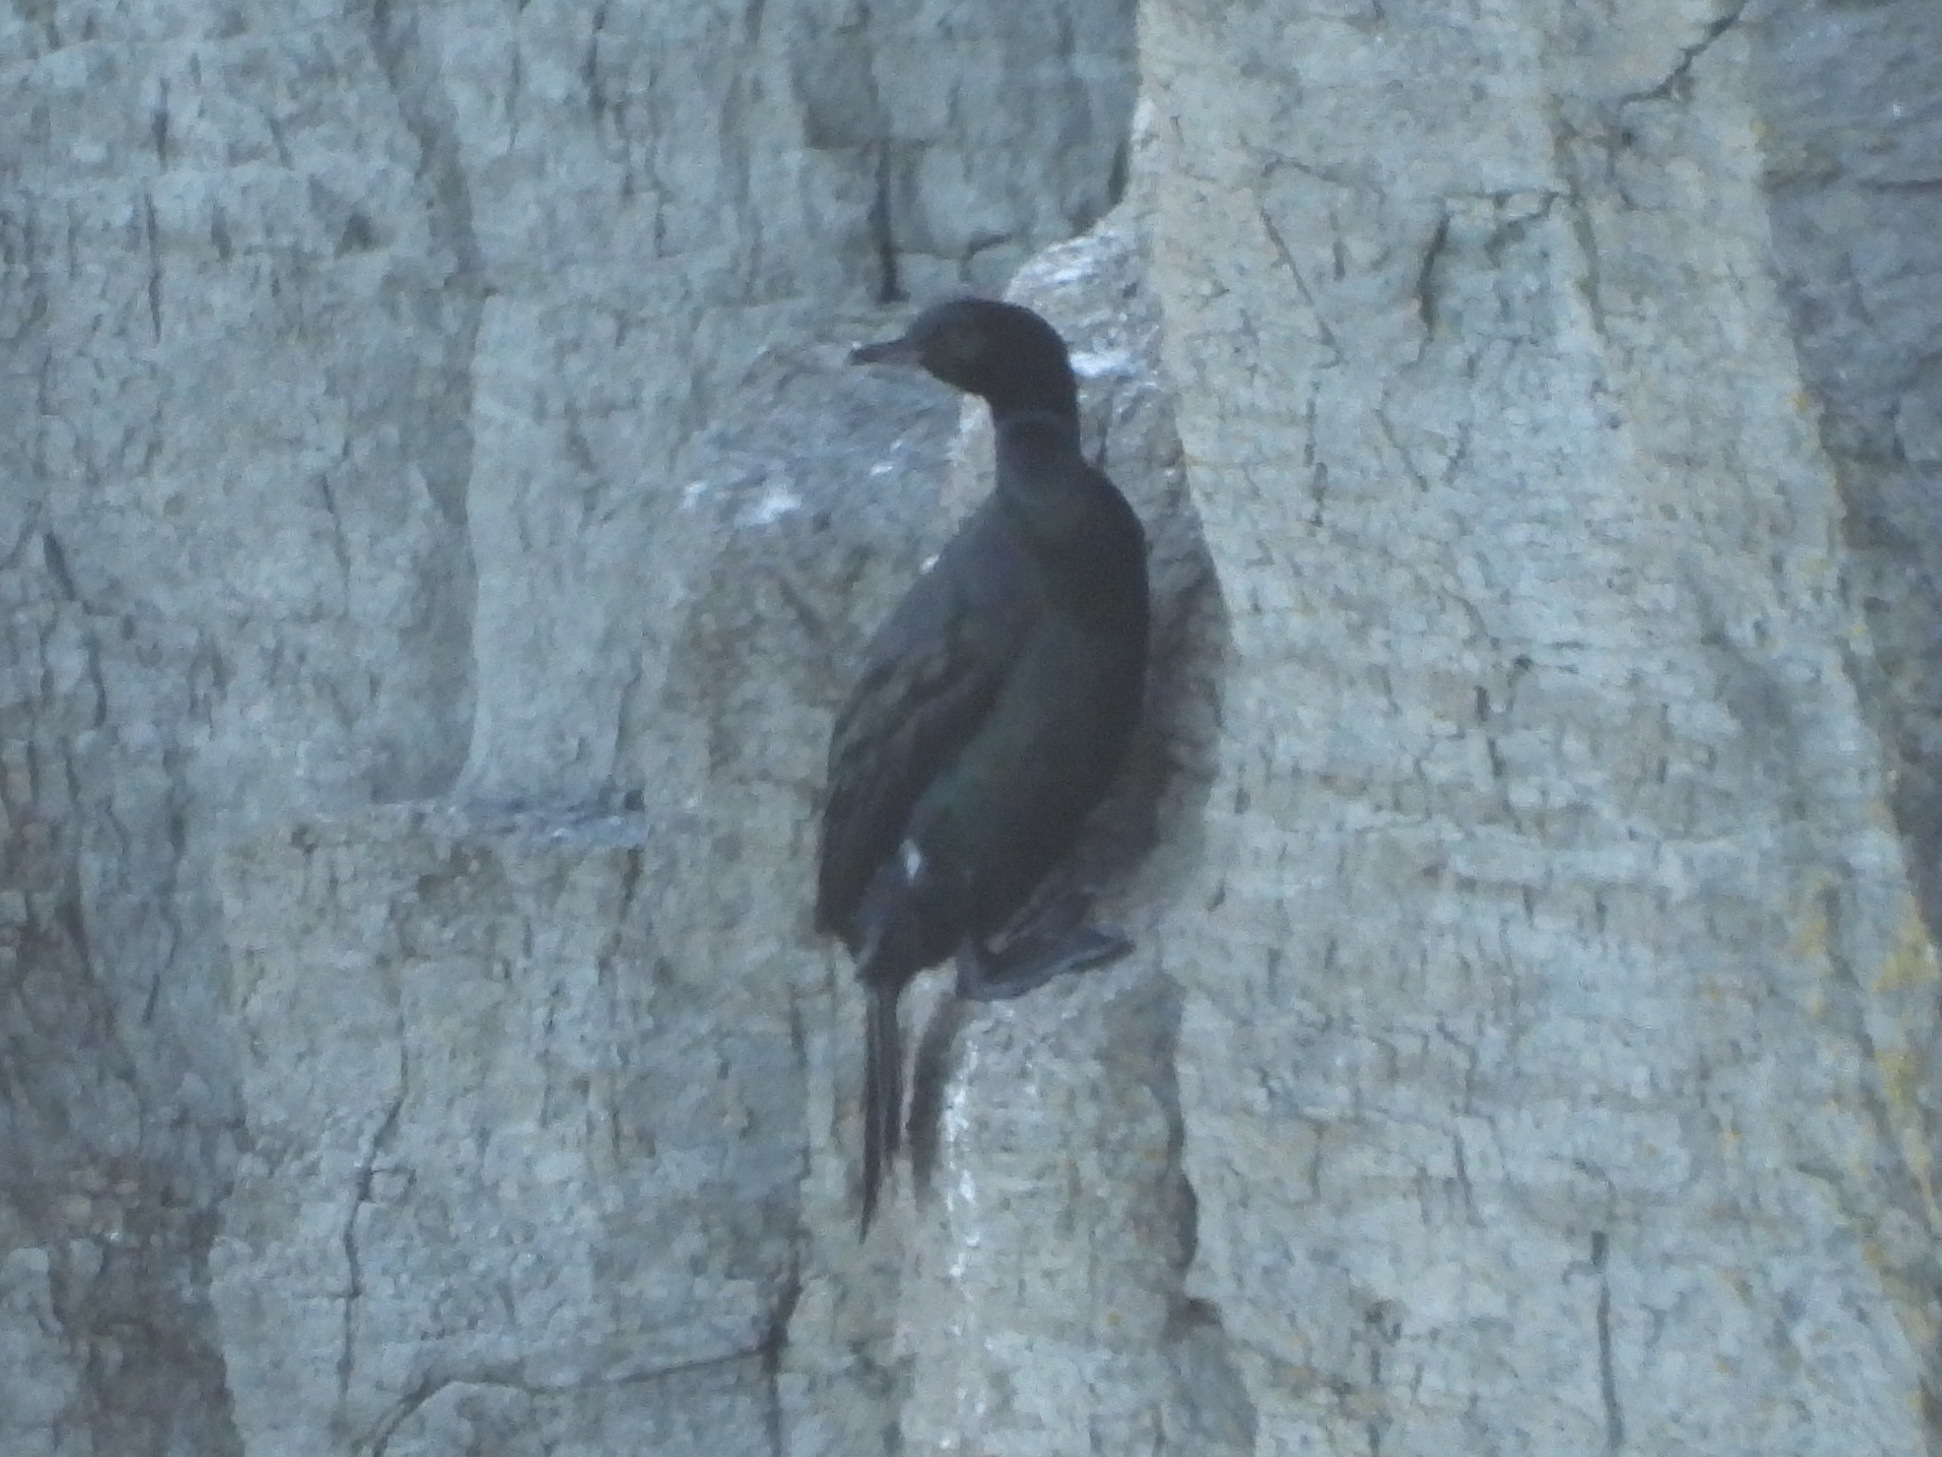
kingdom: Animalia
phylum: Chordata
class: Aves
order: Suliformes
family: Phalacrocoracidae
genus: Phalacrocorax
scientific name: Phalacrocorax pelagicus
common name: Pelagic cormorant
